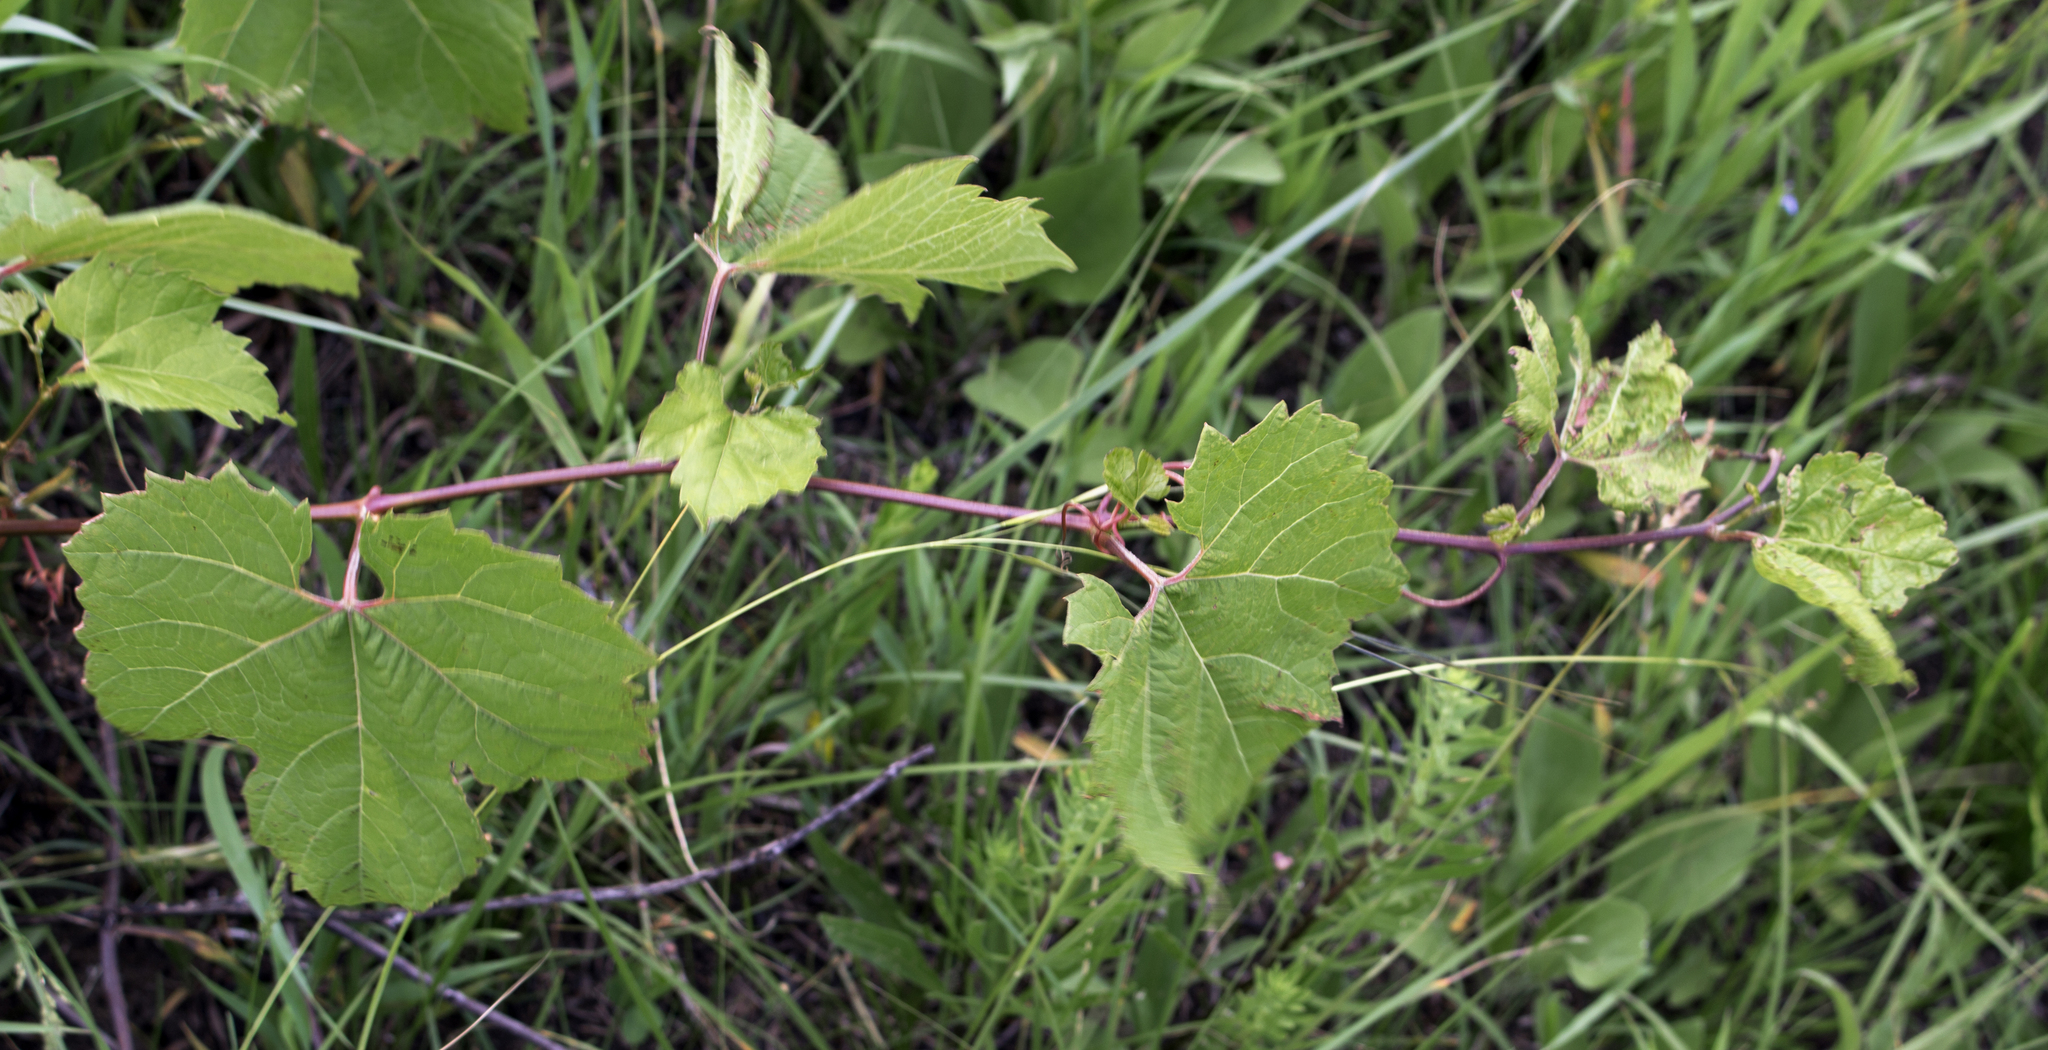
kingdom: Plantae
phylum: Tracheophyta
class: Magnoliopsida
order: Vitales
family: Vitaceae
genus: Vitis
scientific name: Vitis riparia
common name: Frost grape
